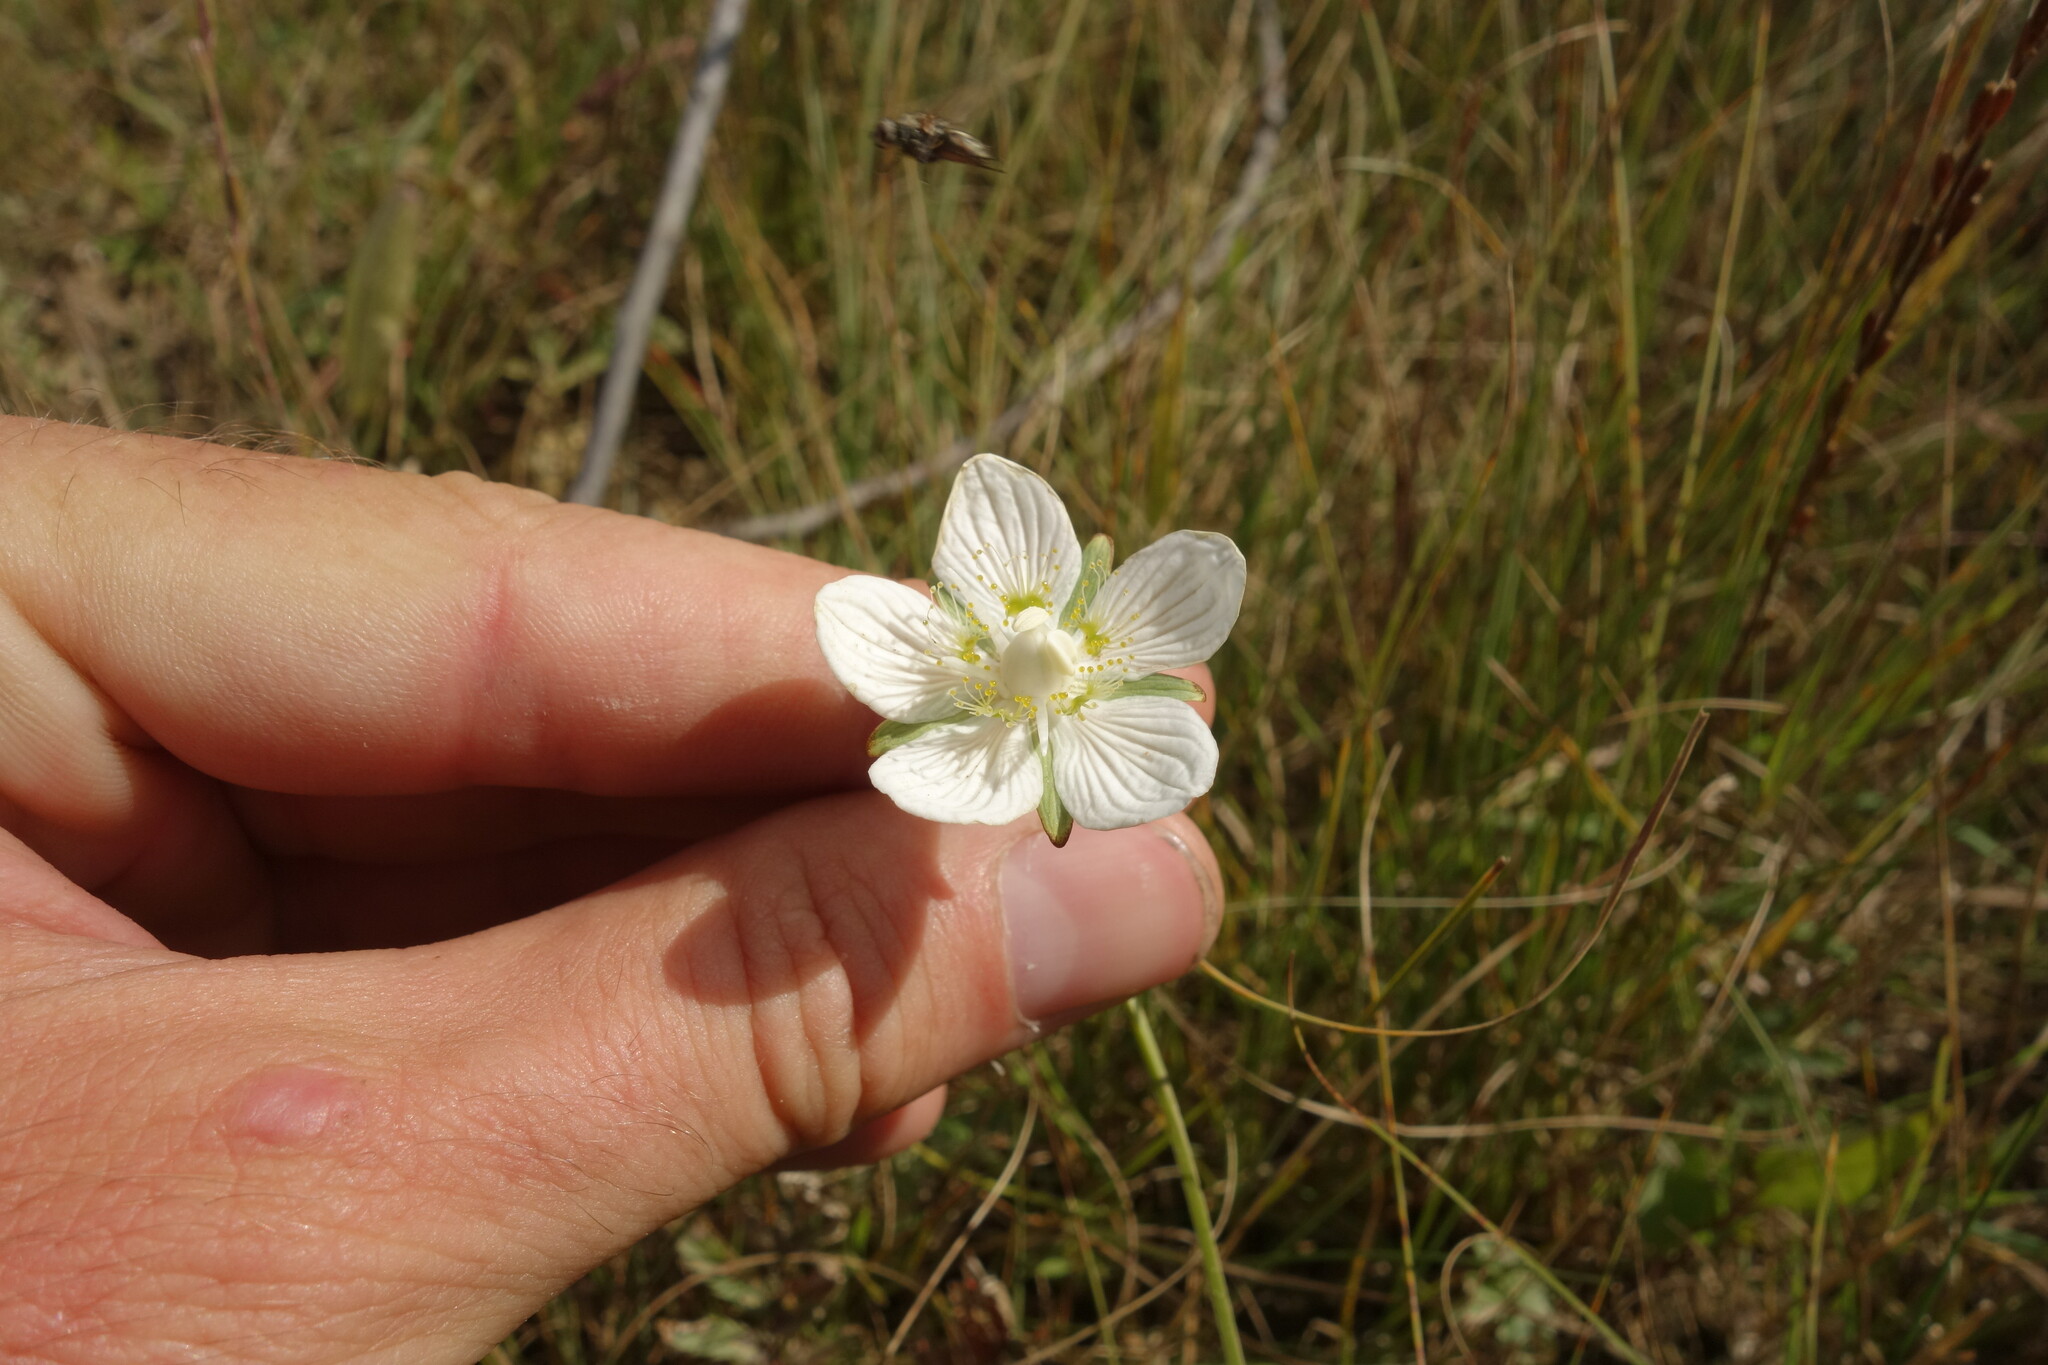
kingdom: Plantae
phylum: Tracheophyta
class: Magnoliopsida
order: Celastrales
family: Parnassiaceae
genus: Parnassia
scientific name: Parnassia palustris
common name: Grass-of-parnassus
